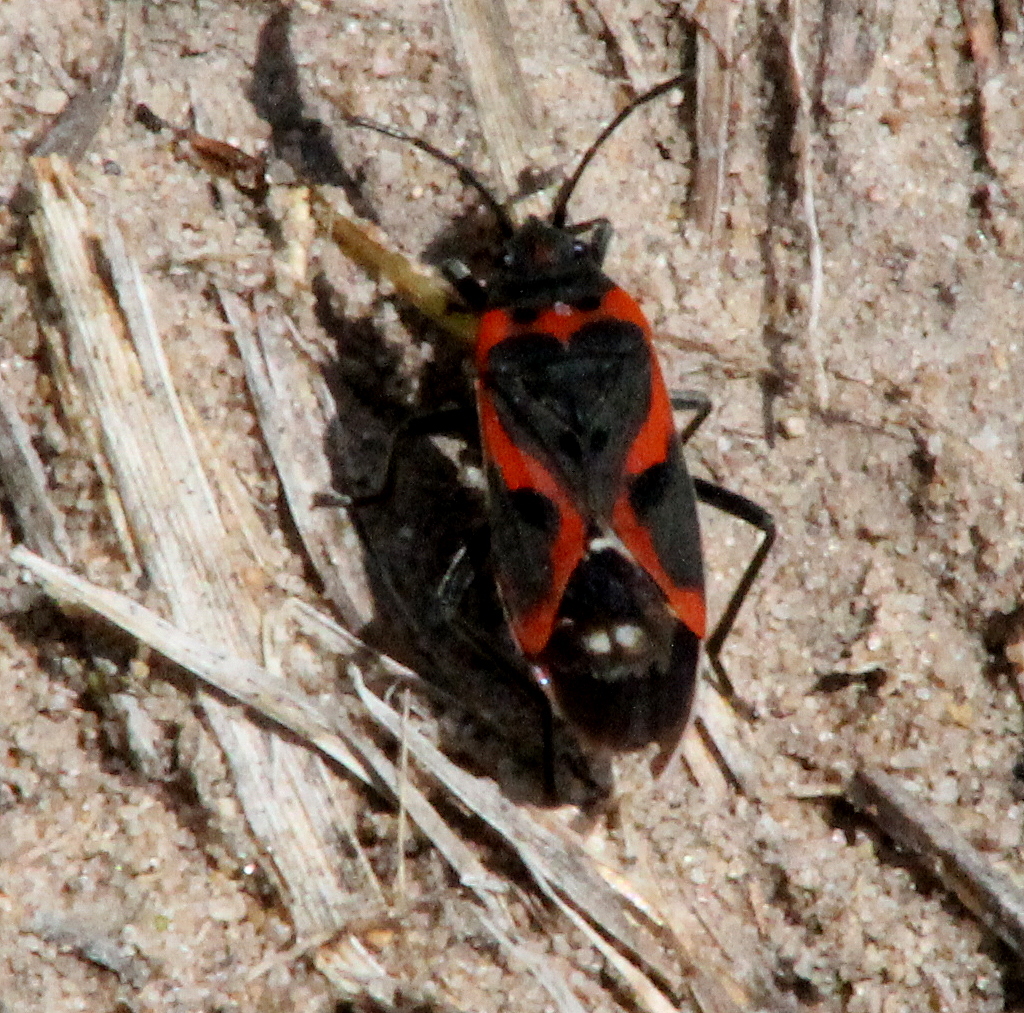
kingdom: Animalia
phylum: Arthropoda
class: Insecta
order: Hemiptera
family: Lygaeidae
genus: Lygaeus
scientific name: Lygaeus kalmii
